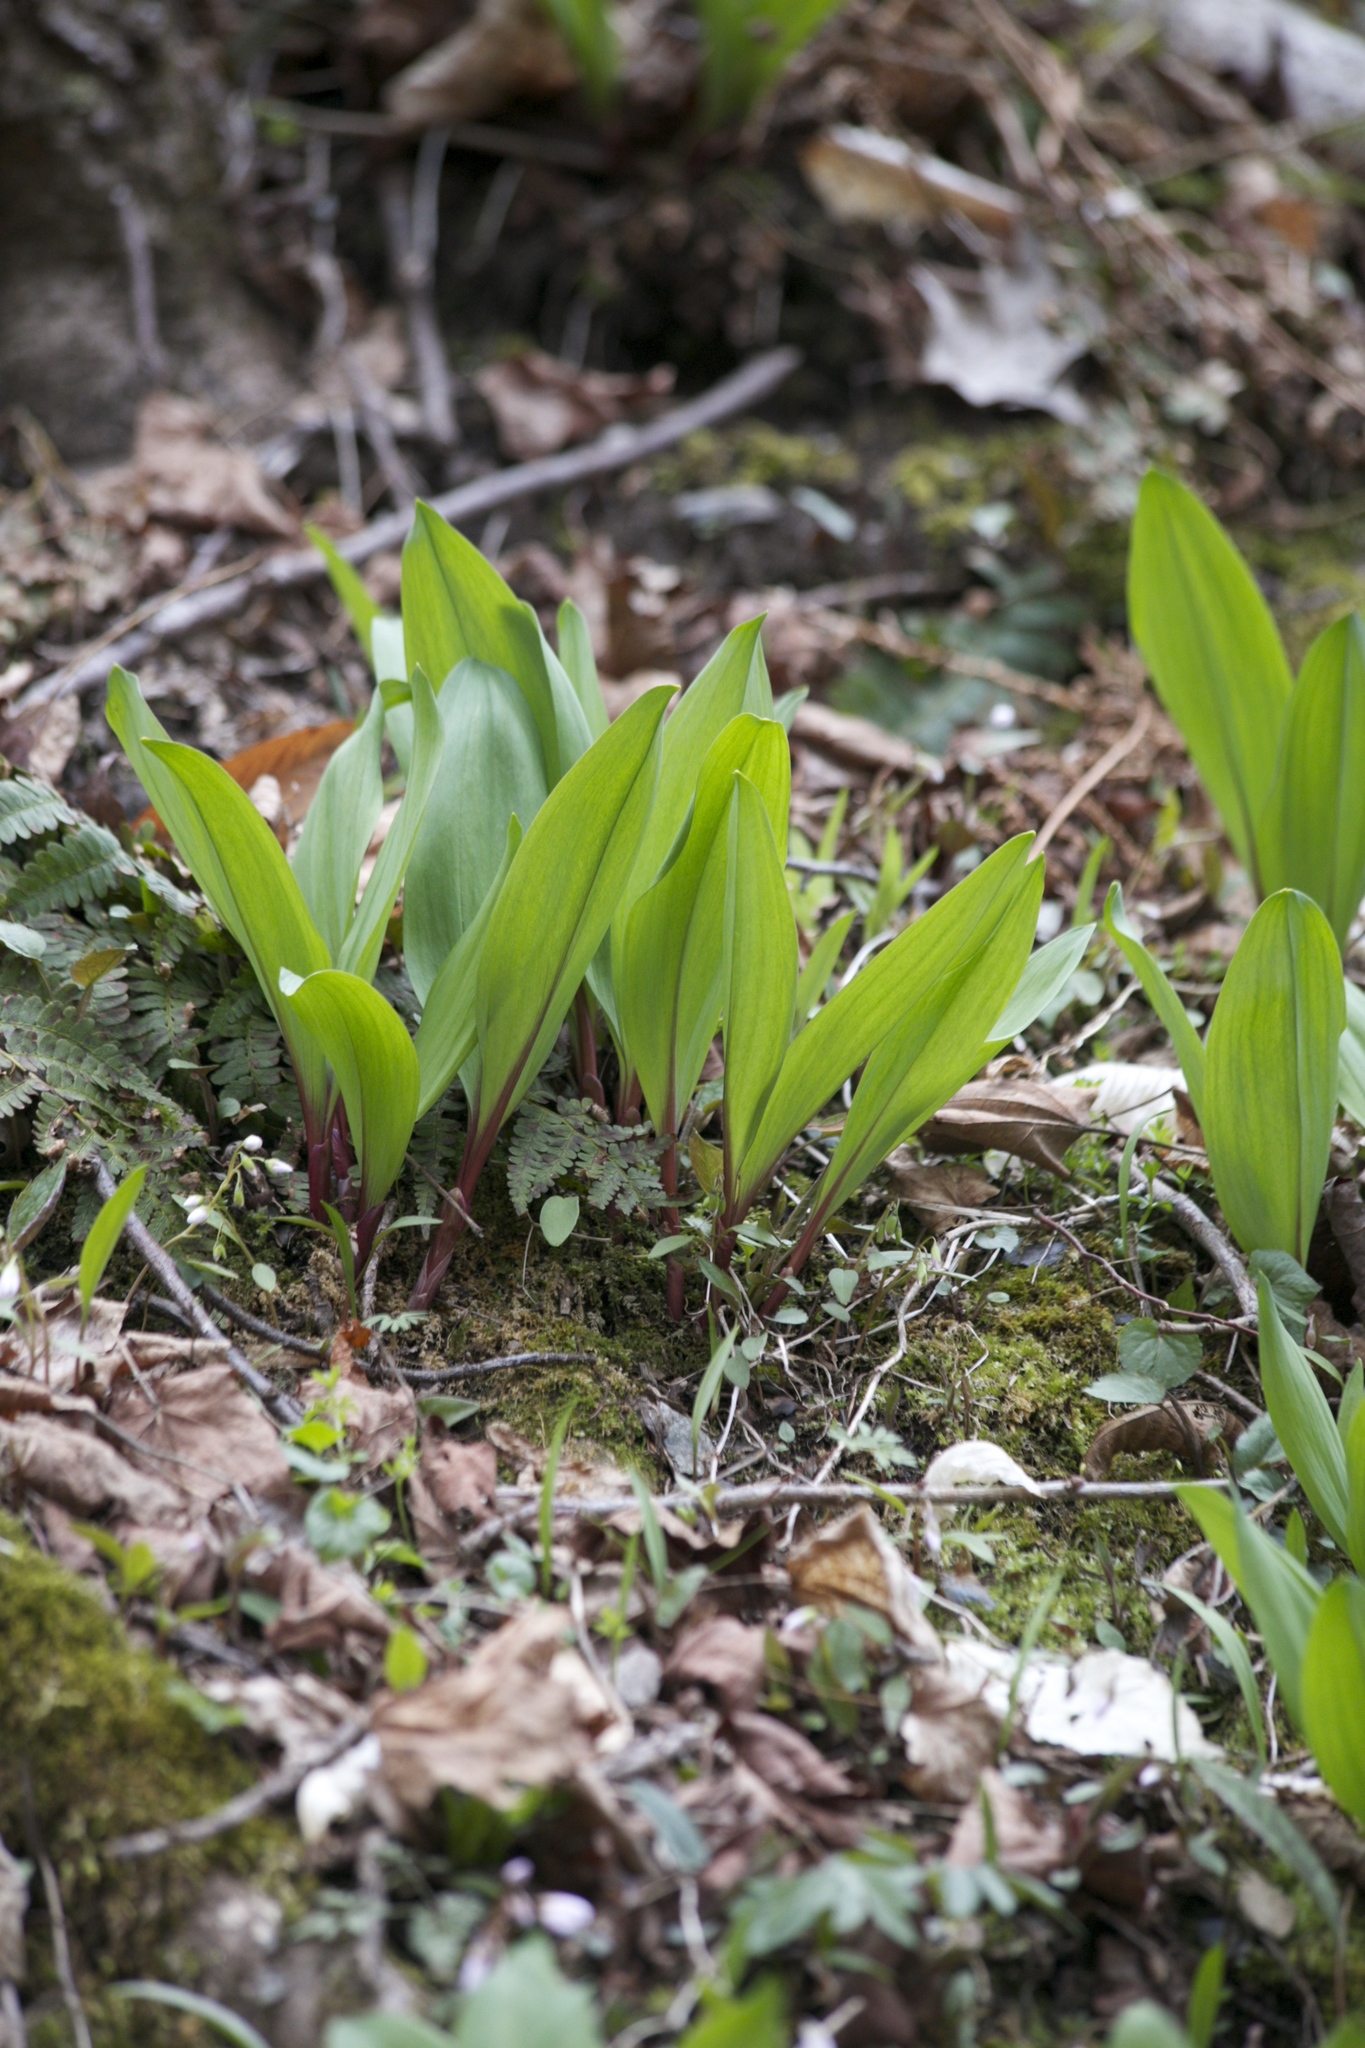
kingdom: Plantae
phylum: Tracheophyta
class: Liliopsida
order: Asparagales
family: Amaryllidaceae
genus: Allium
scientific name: Allium tricoccum
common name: Ramp
